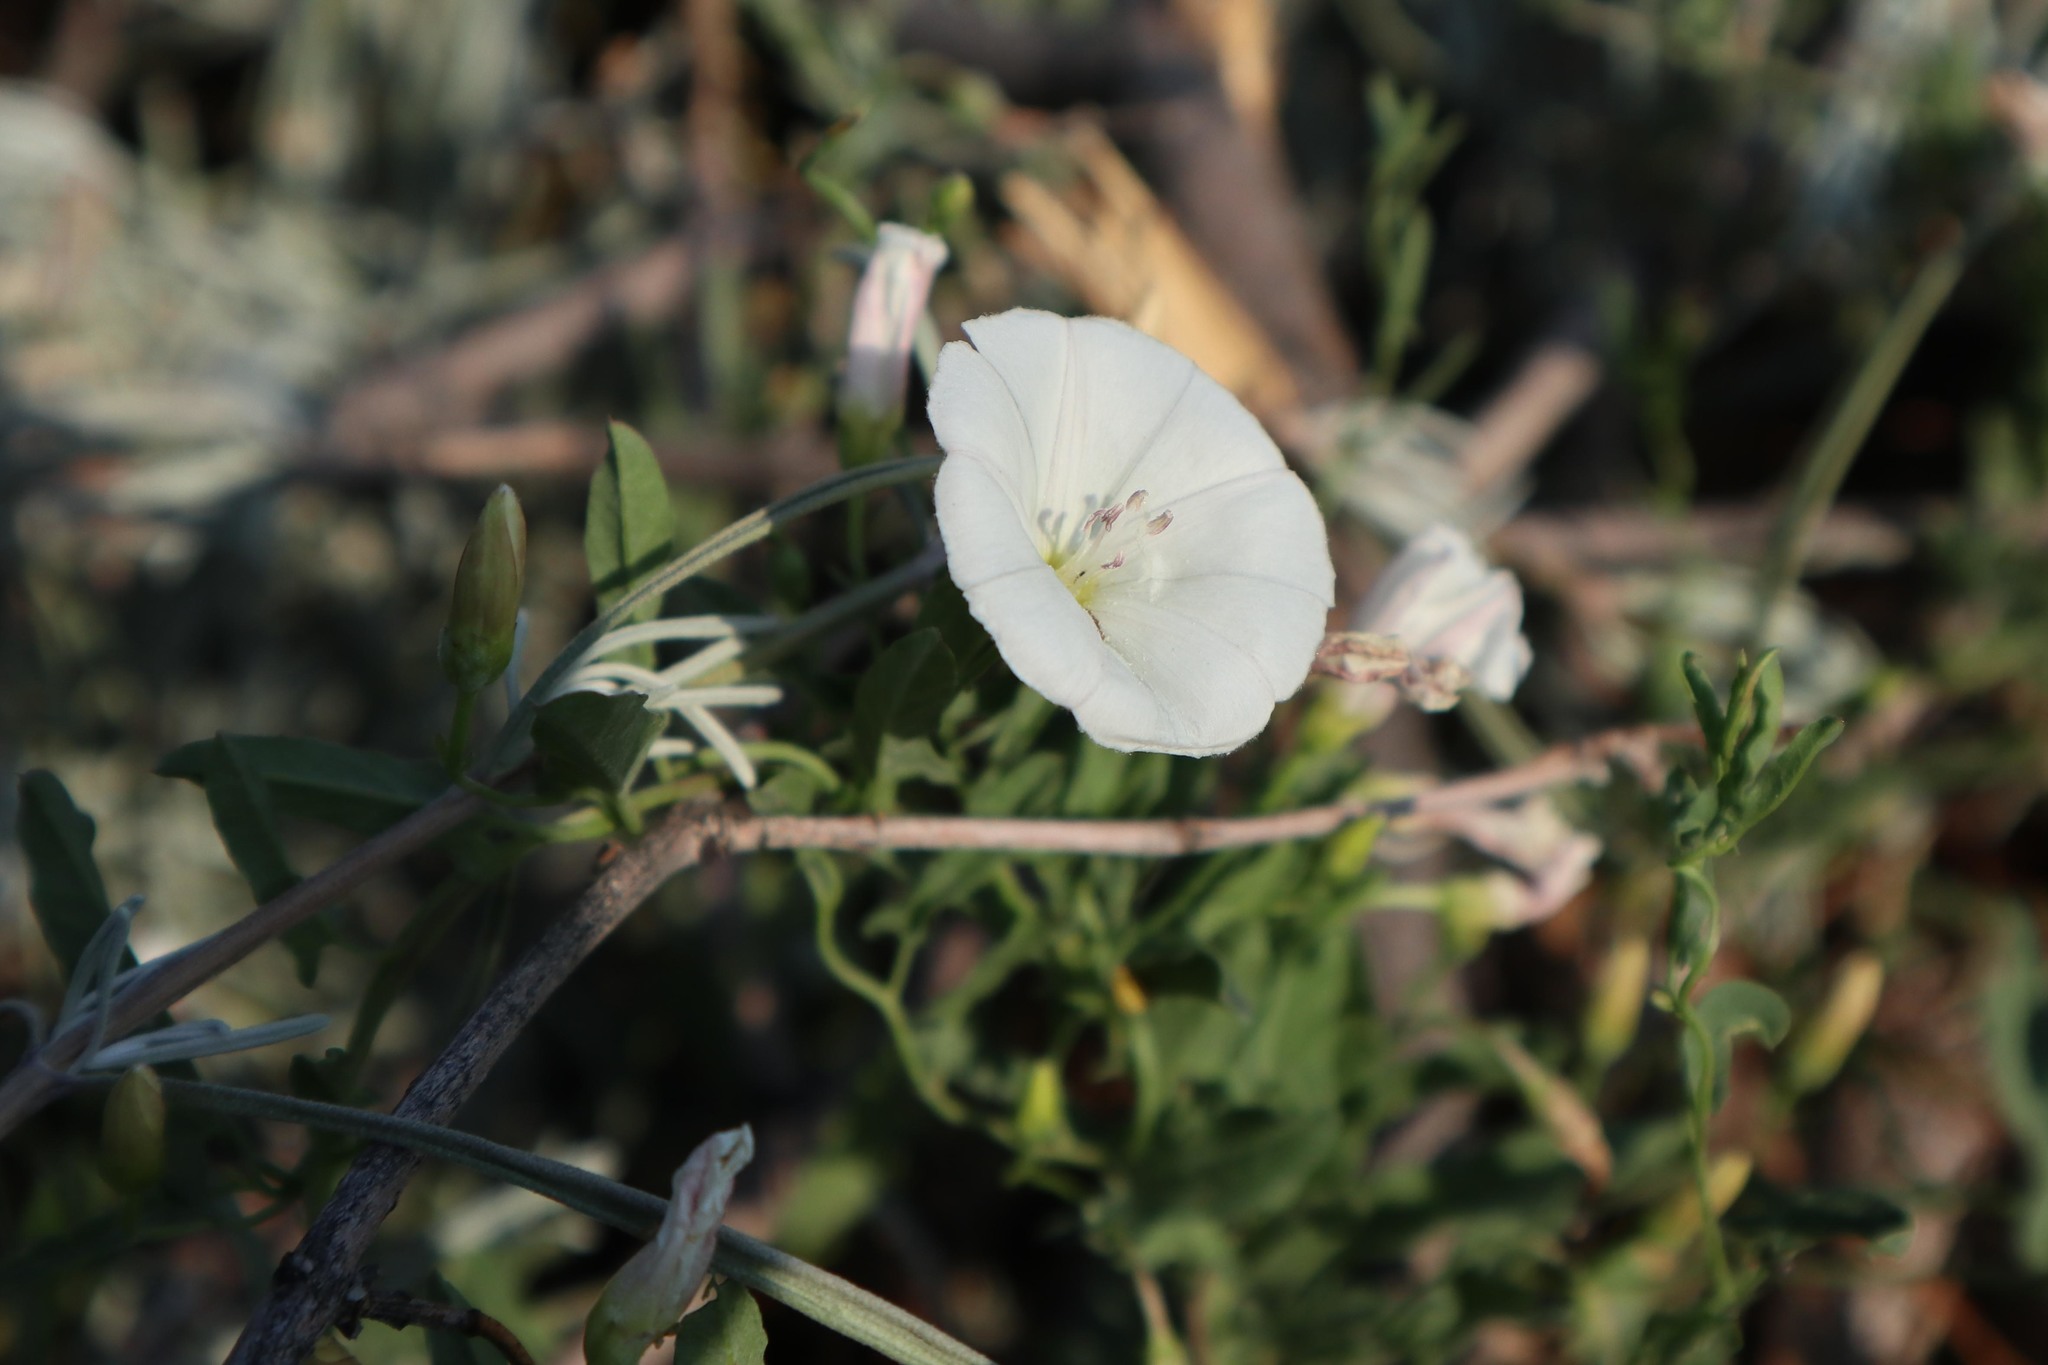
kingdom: Plantae
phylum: Tracheophyta
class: Magnoliopsida
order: Solanales
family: Convolvulaceae
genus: Convolvulus
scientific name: Convolvulus arvensis
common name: Field bindweed
